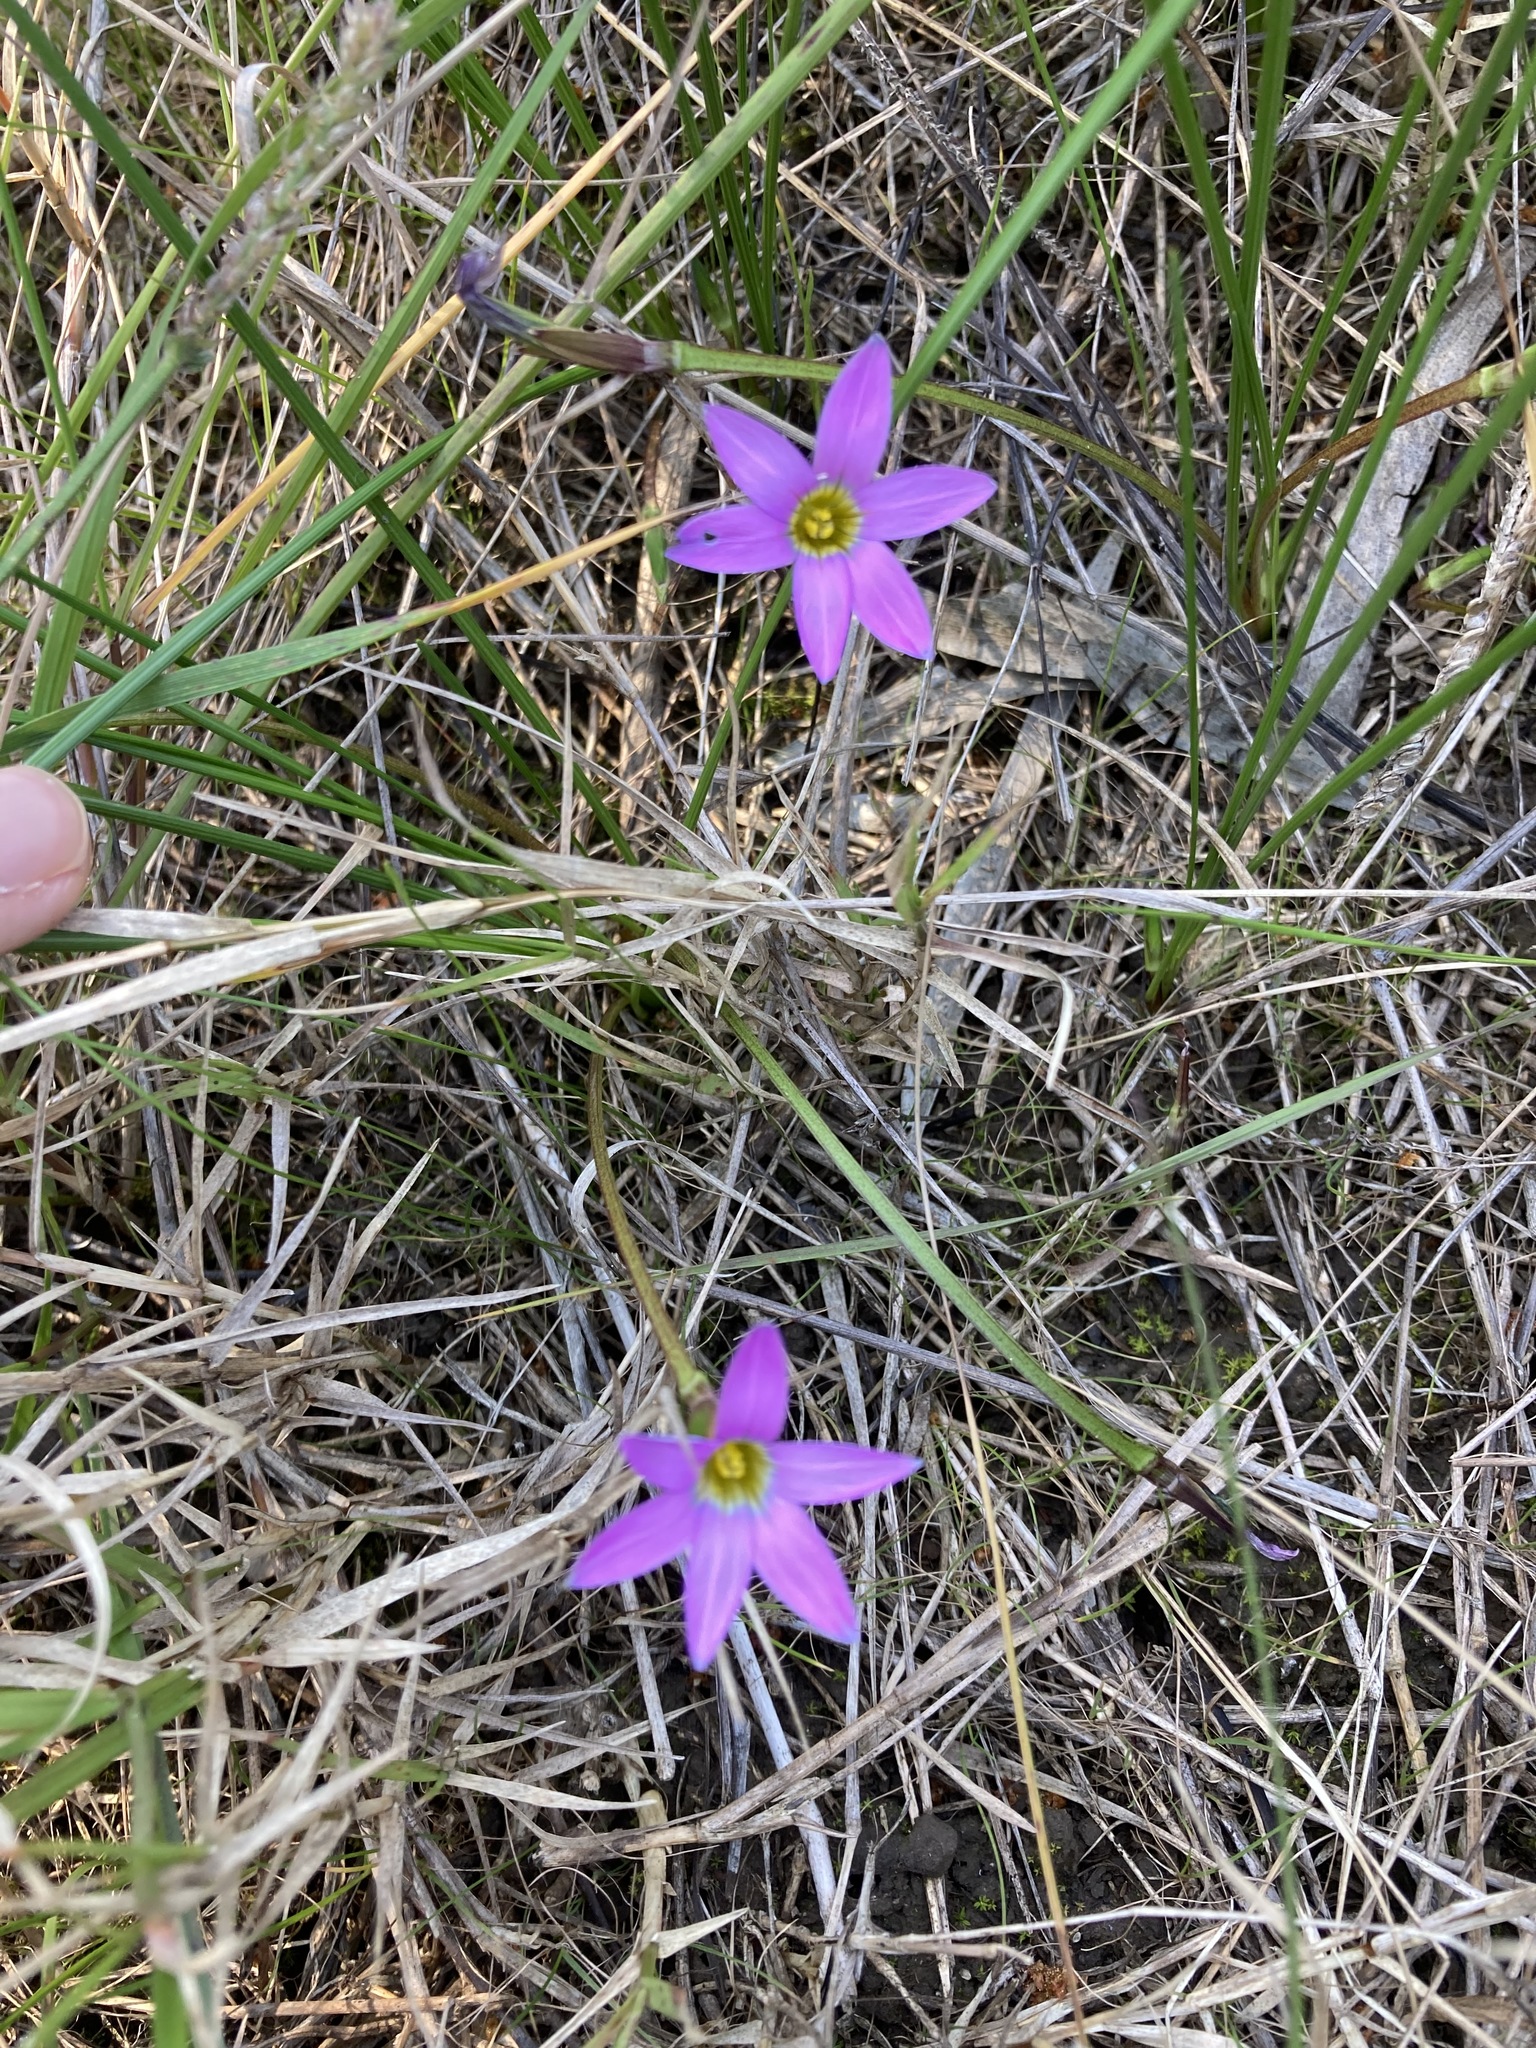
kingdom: Plantae
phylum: Tracheophyta
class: Liliopsida
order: Asparagales
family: Iridaceae
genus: Romulea
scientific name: Romulea rosea
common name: Oniongrass
